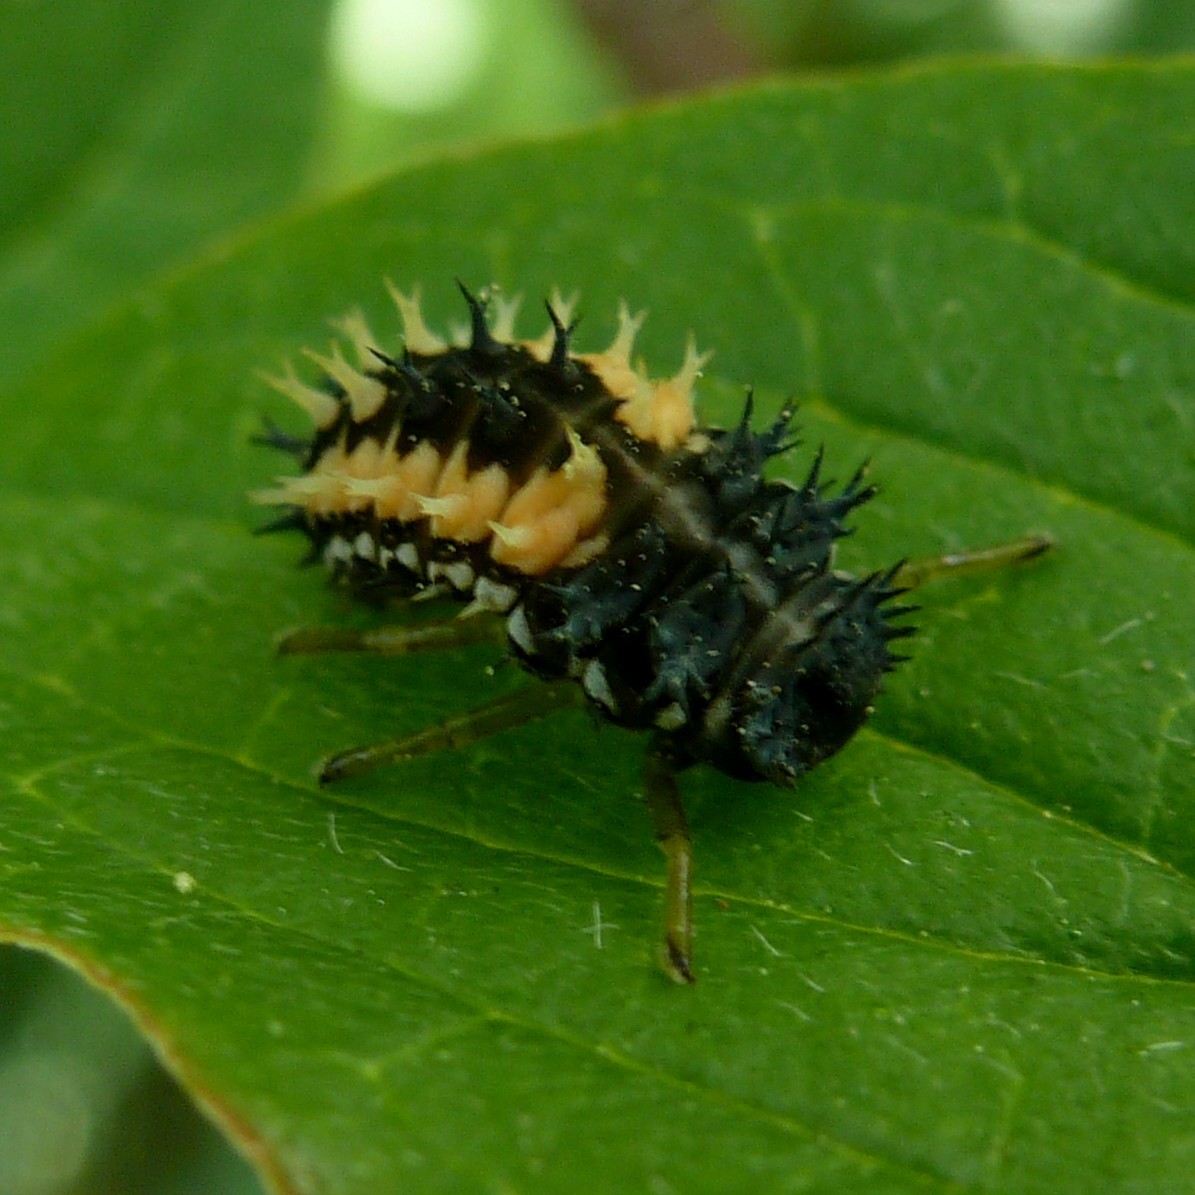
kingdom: Animalia
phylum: Arthropoda
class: Insecta
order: Coleoptera
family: Coccinellidae
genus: Harmonia
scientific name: Harmonia axyridis
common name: Harlequin ladybird
